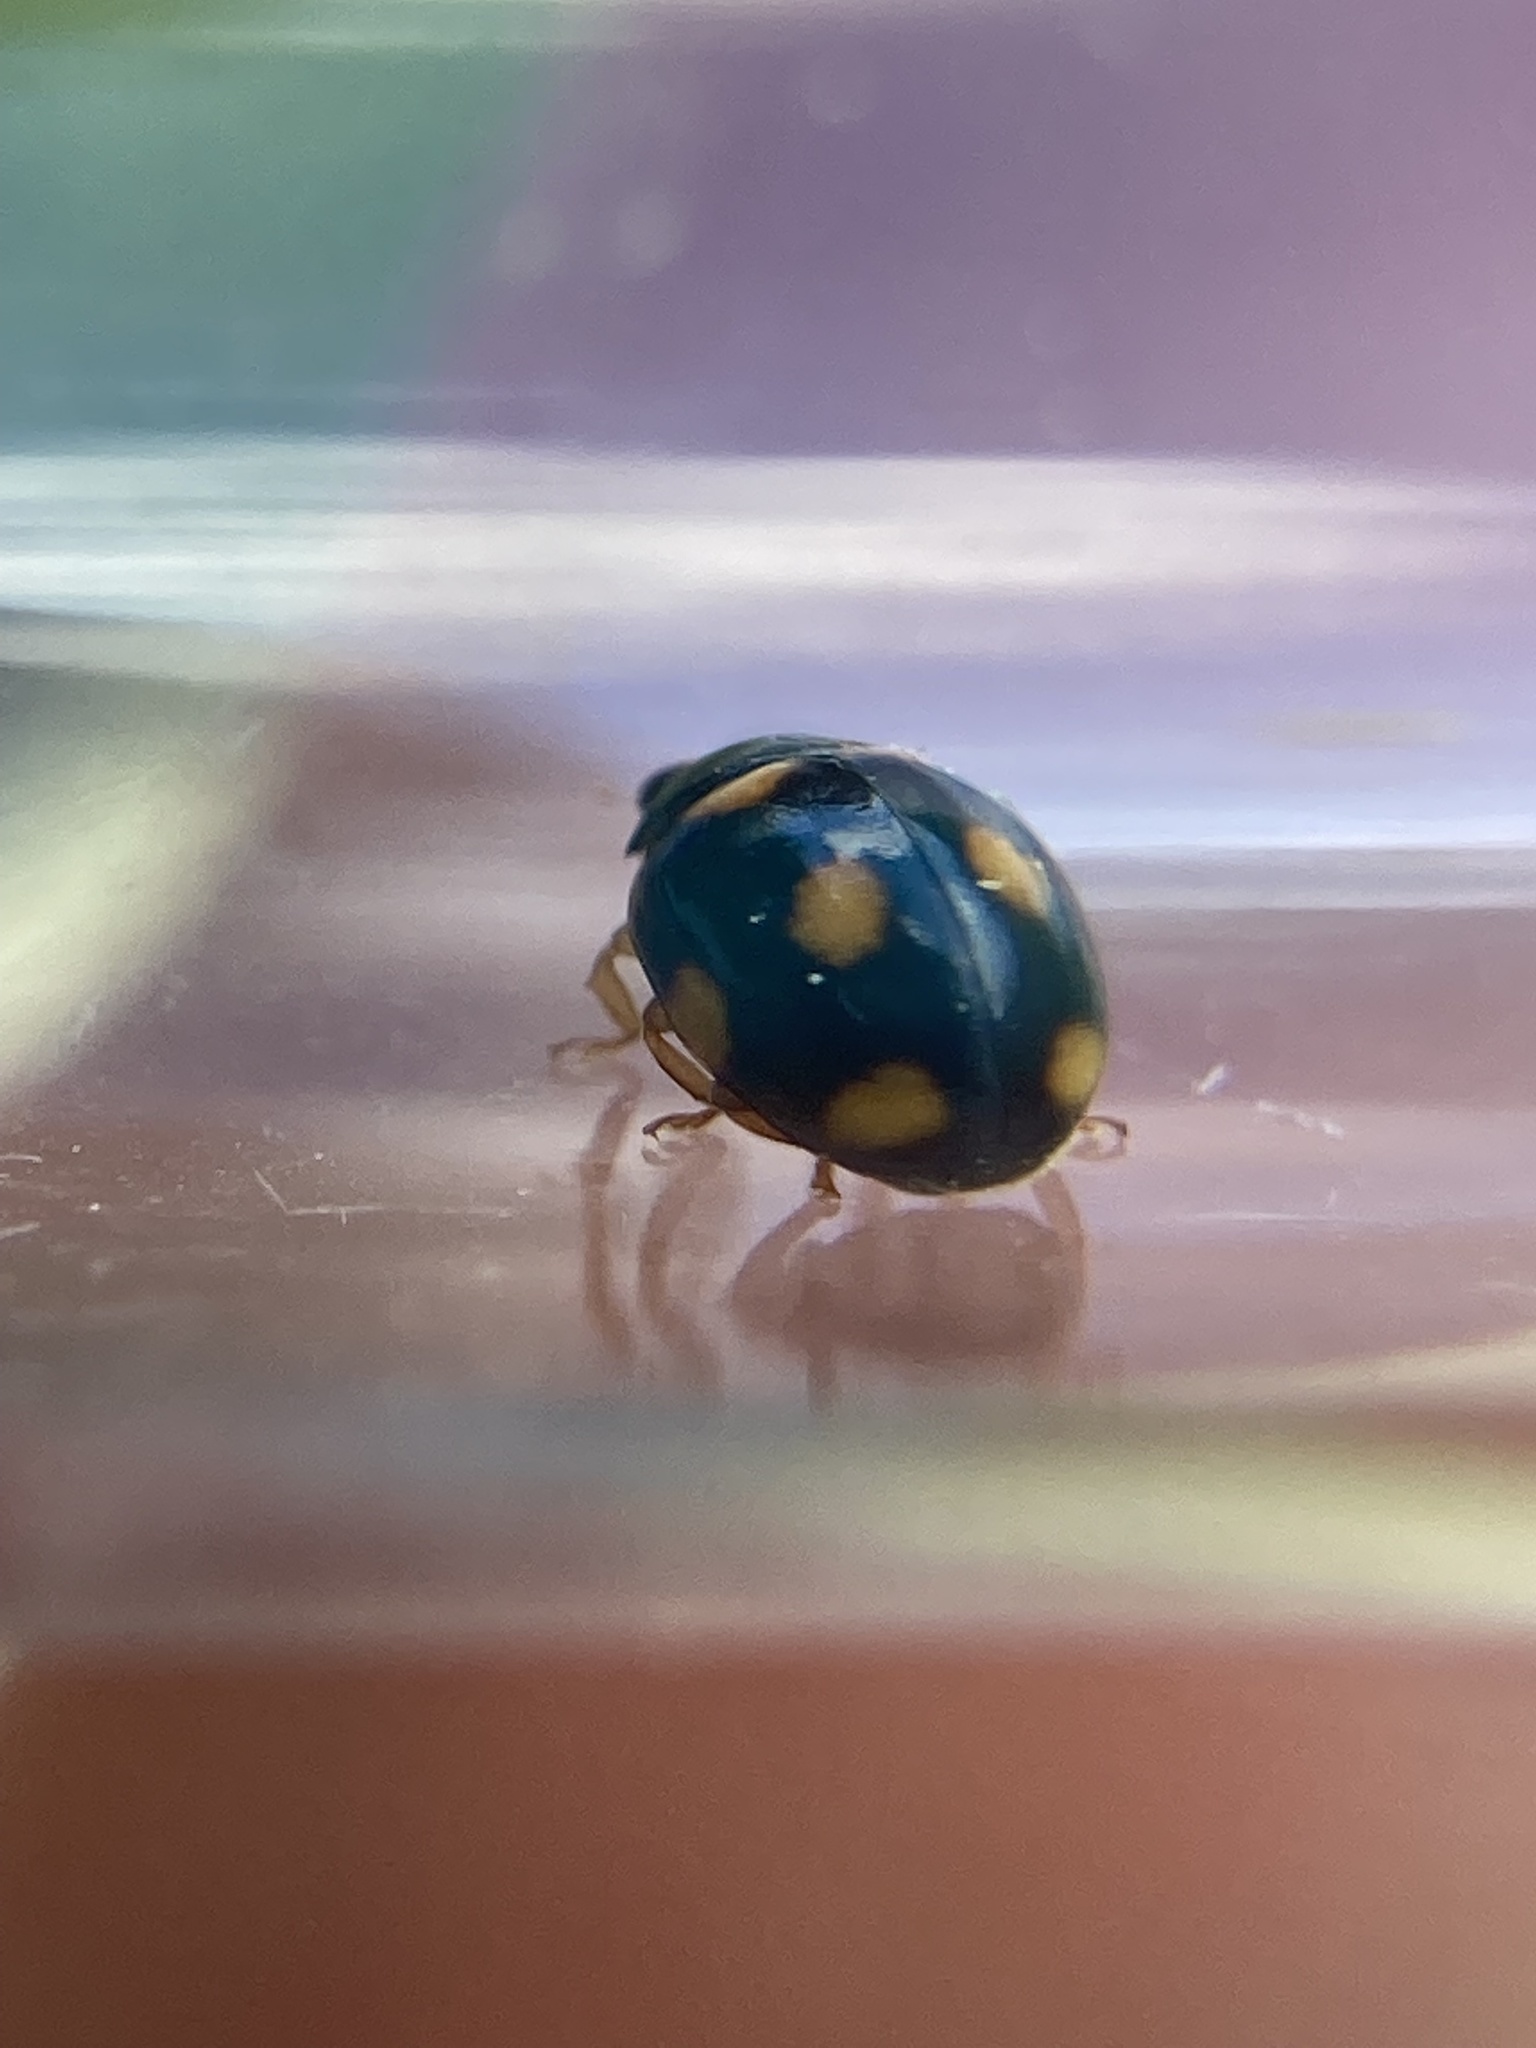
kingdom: Animalia
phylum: Arthropoda
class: Insecta
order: Coleoptera
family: Coccinellidae
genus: Brachiacantha
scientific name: Brachiacantha ursina
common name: Ursine spurleg lady beetle
